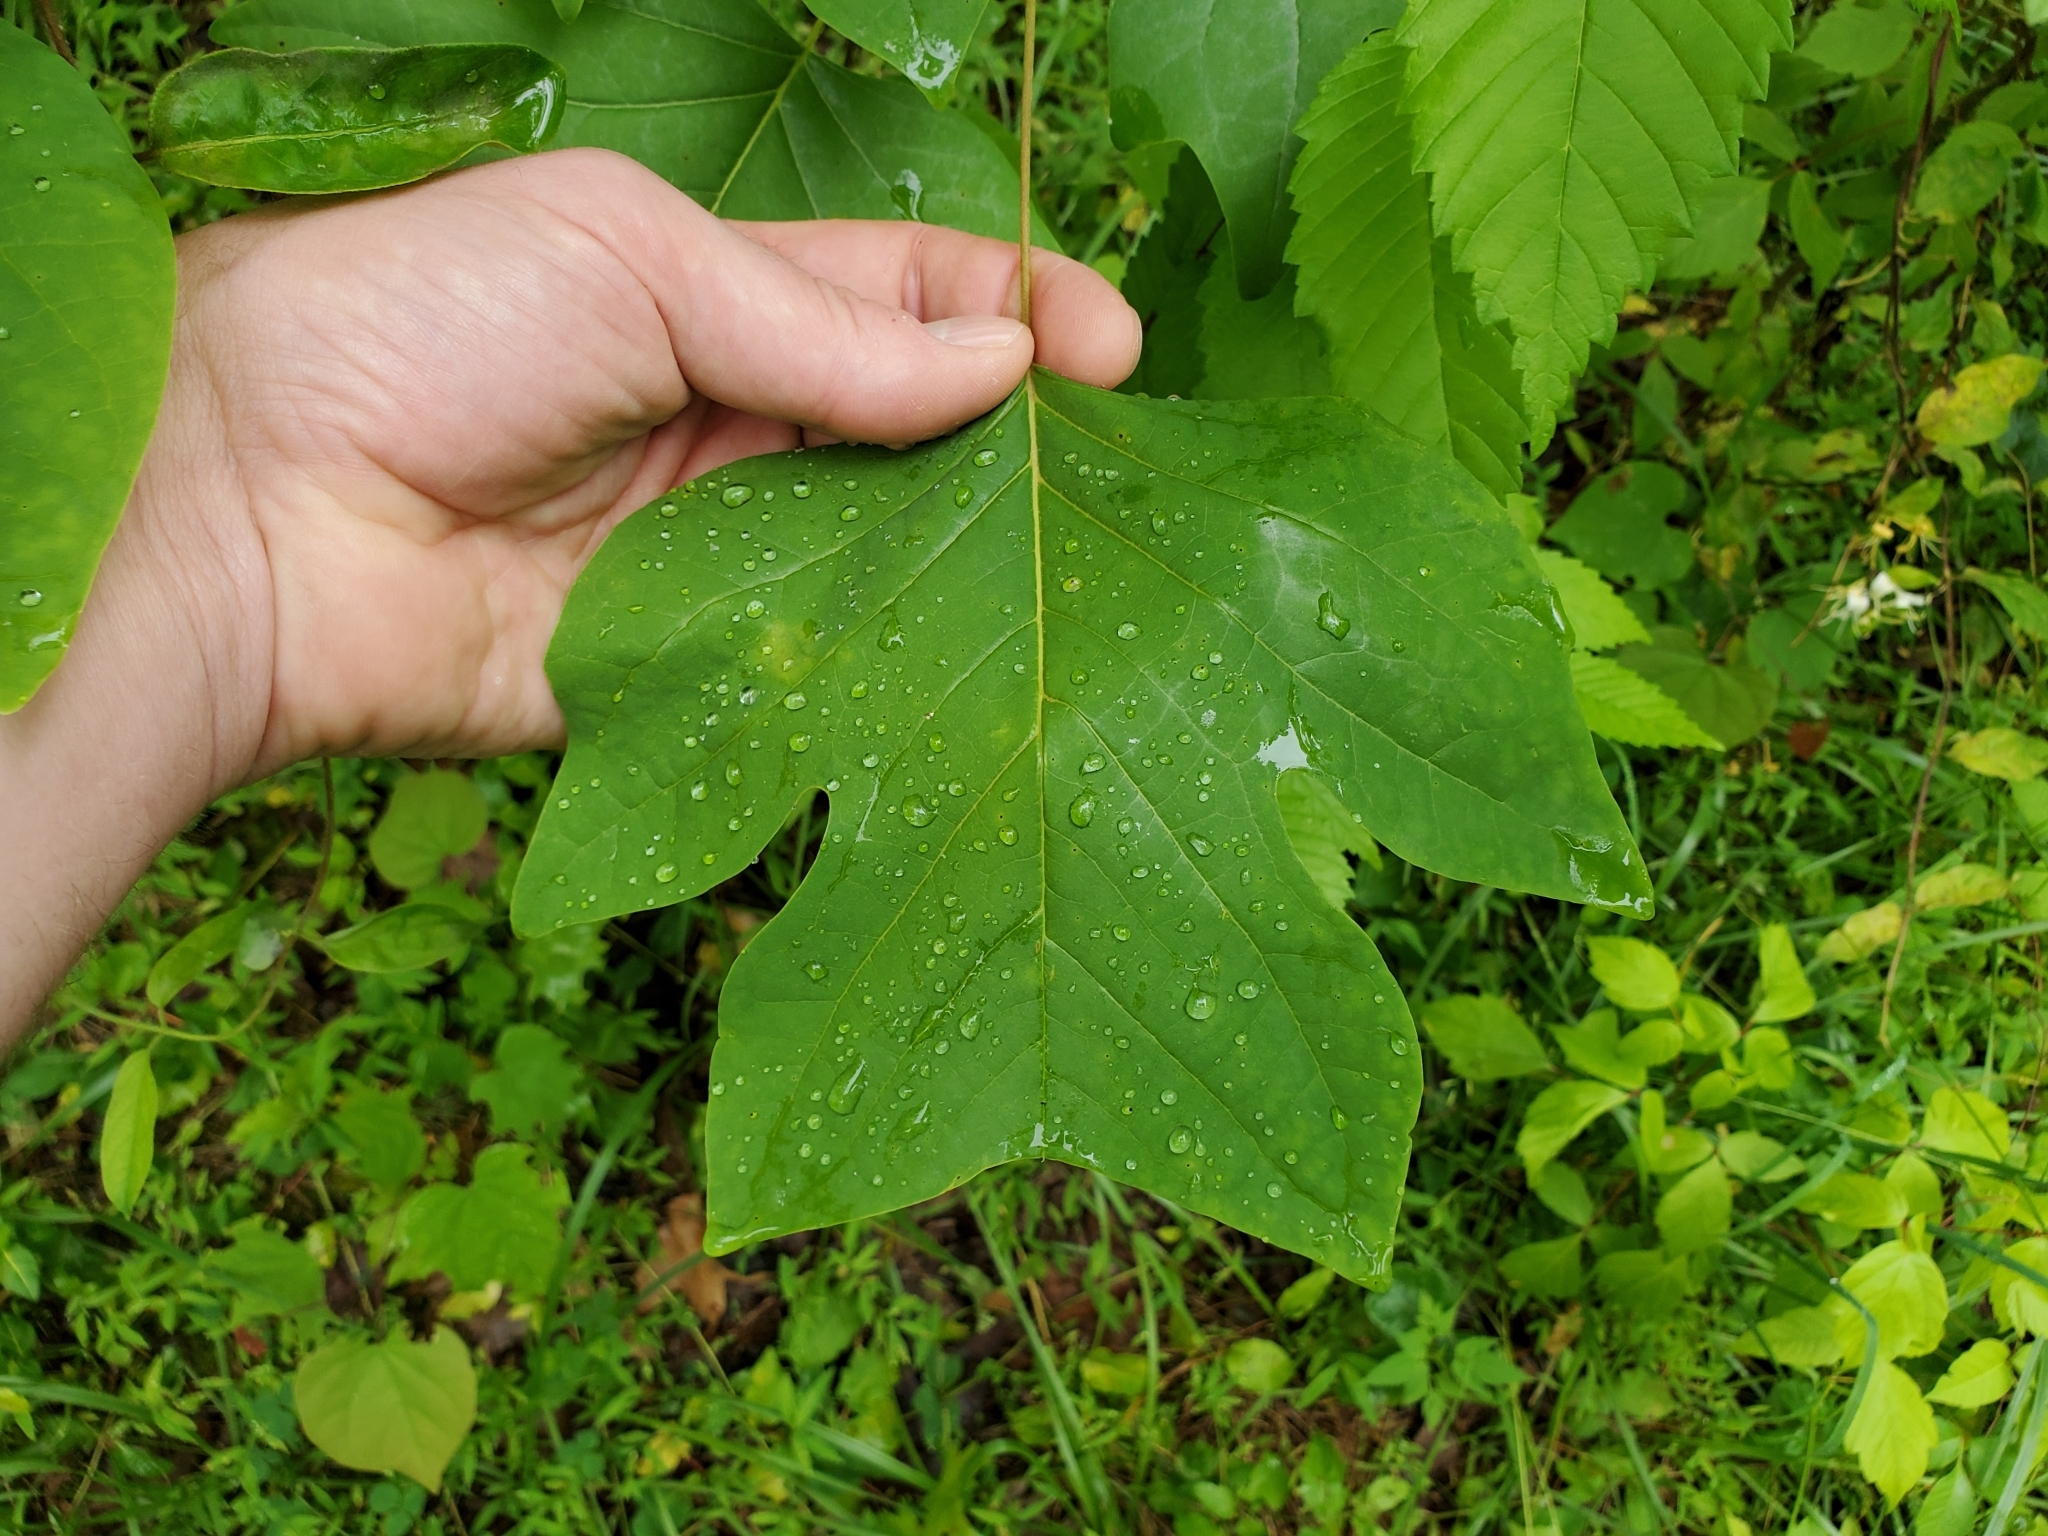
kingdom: Plantae
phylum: Tracheophyta
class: Magnoliopsida
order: Magnoliales
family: Magnoliaceae
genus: Liriodendron
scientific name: Liriodendron tulipifera
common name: Tulip tree
